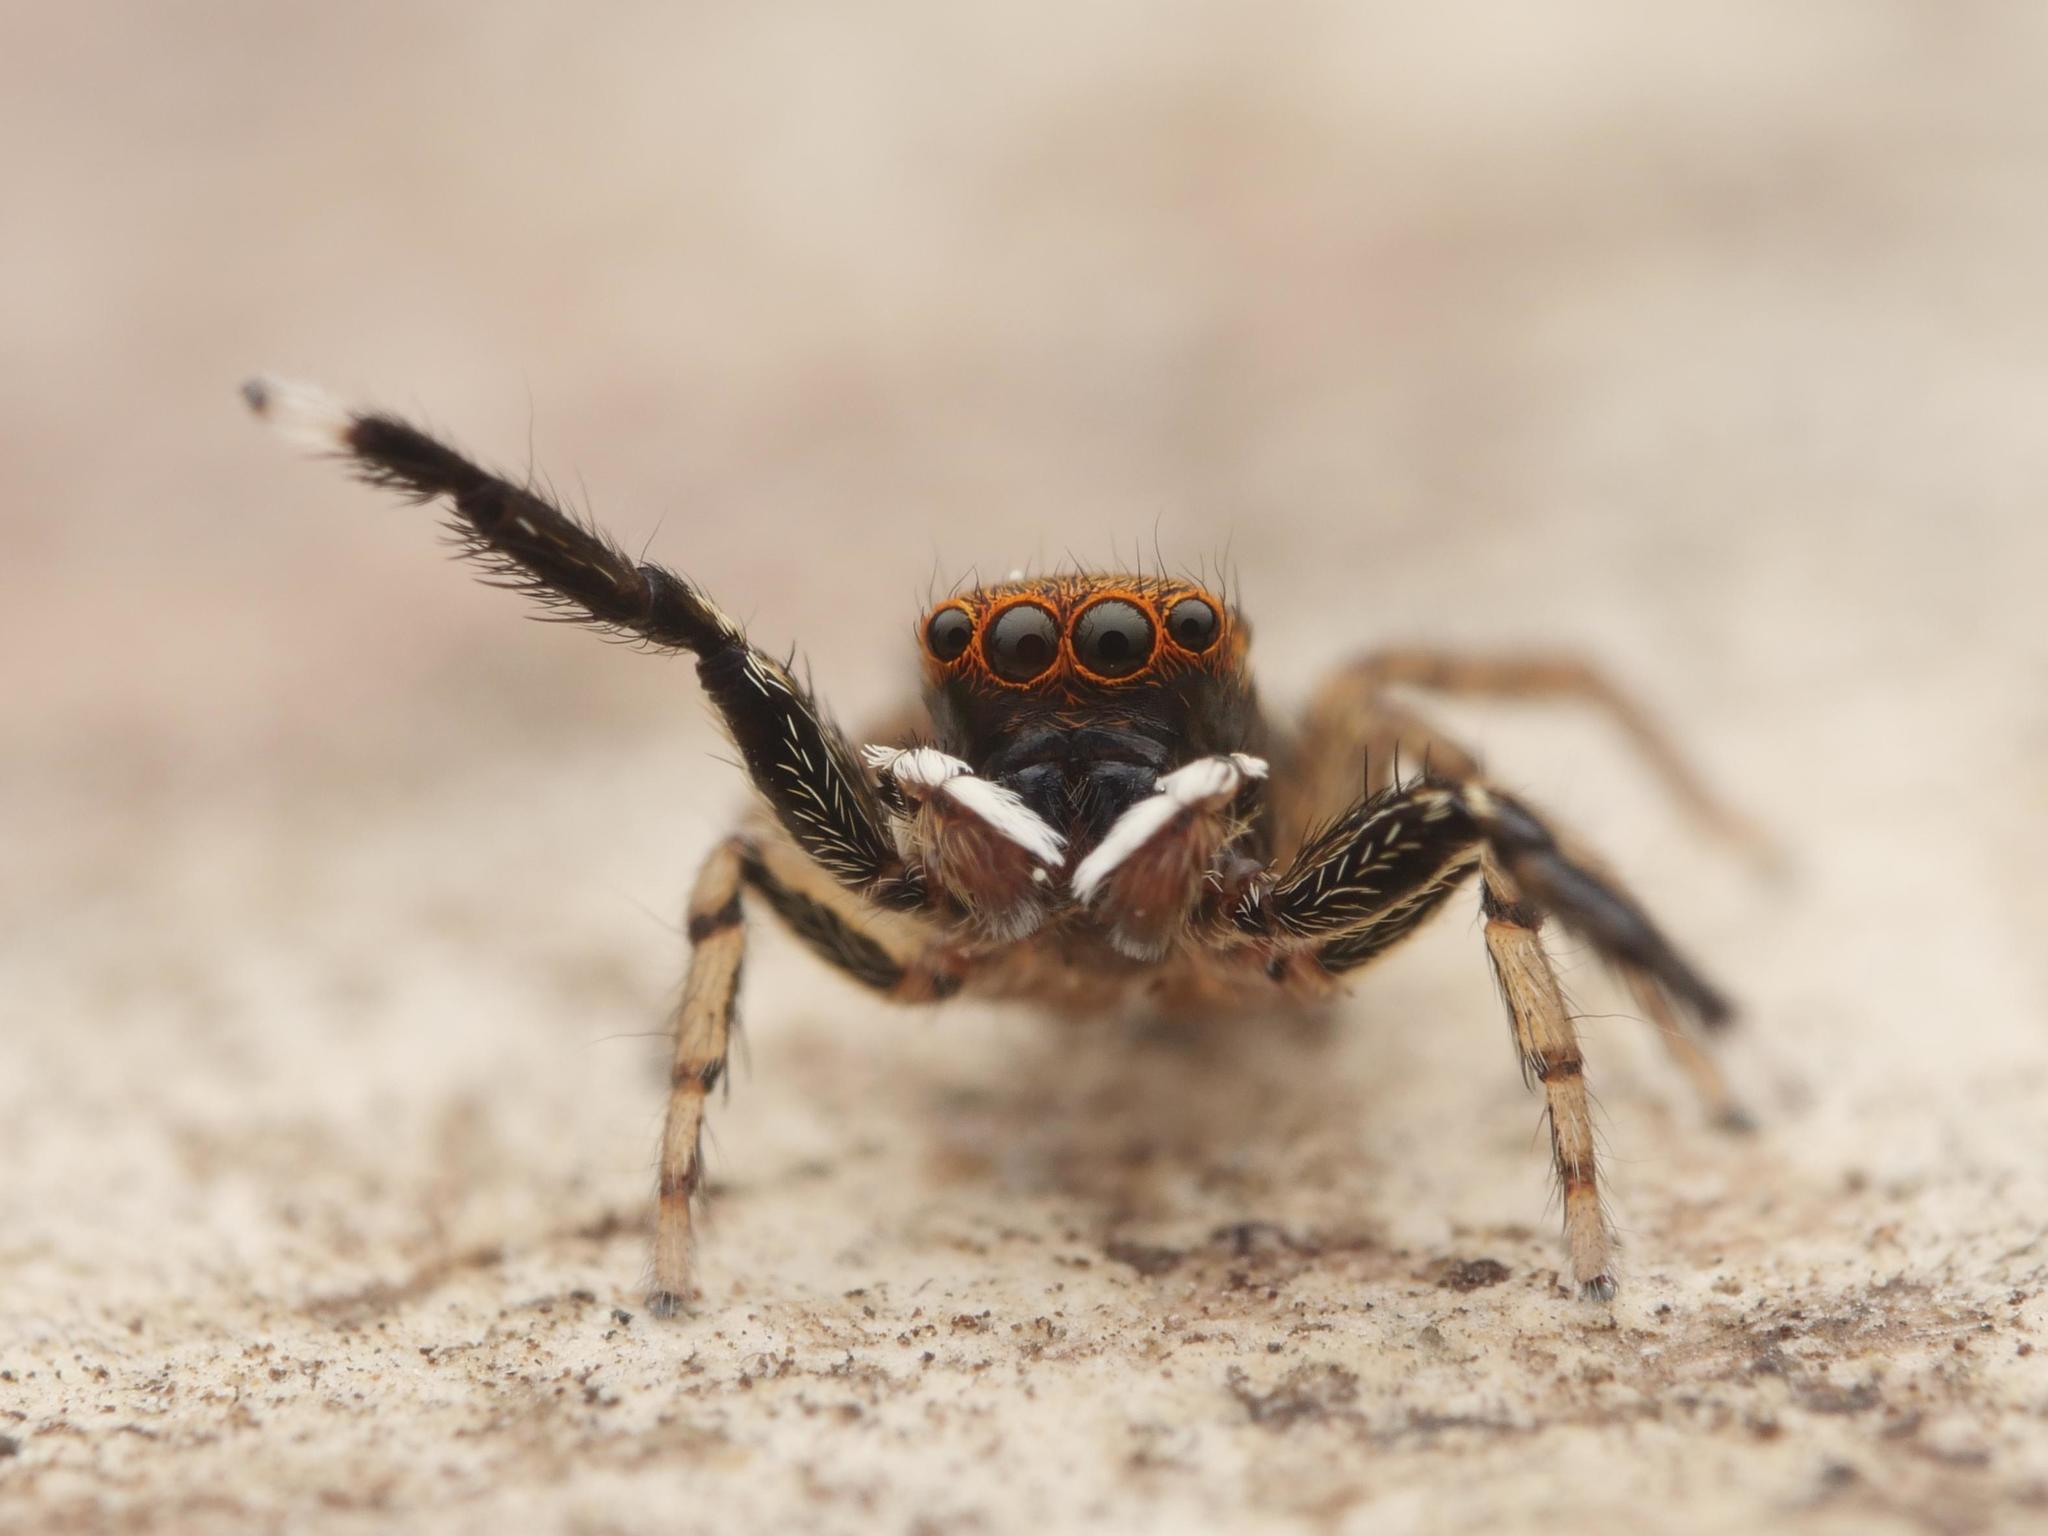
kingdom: Animalia
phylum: Arthropoda
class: Arachnida
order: Araneae
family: Salticidae
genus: Euophrys
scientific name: Euophrys frontalis
